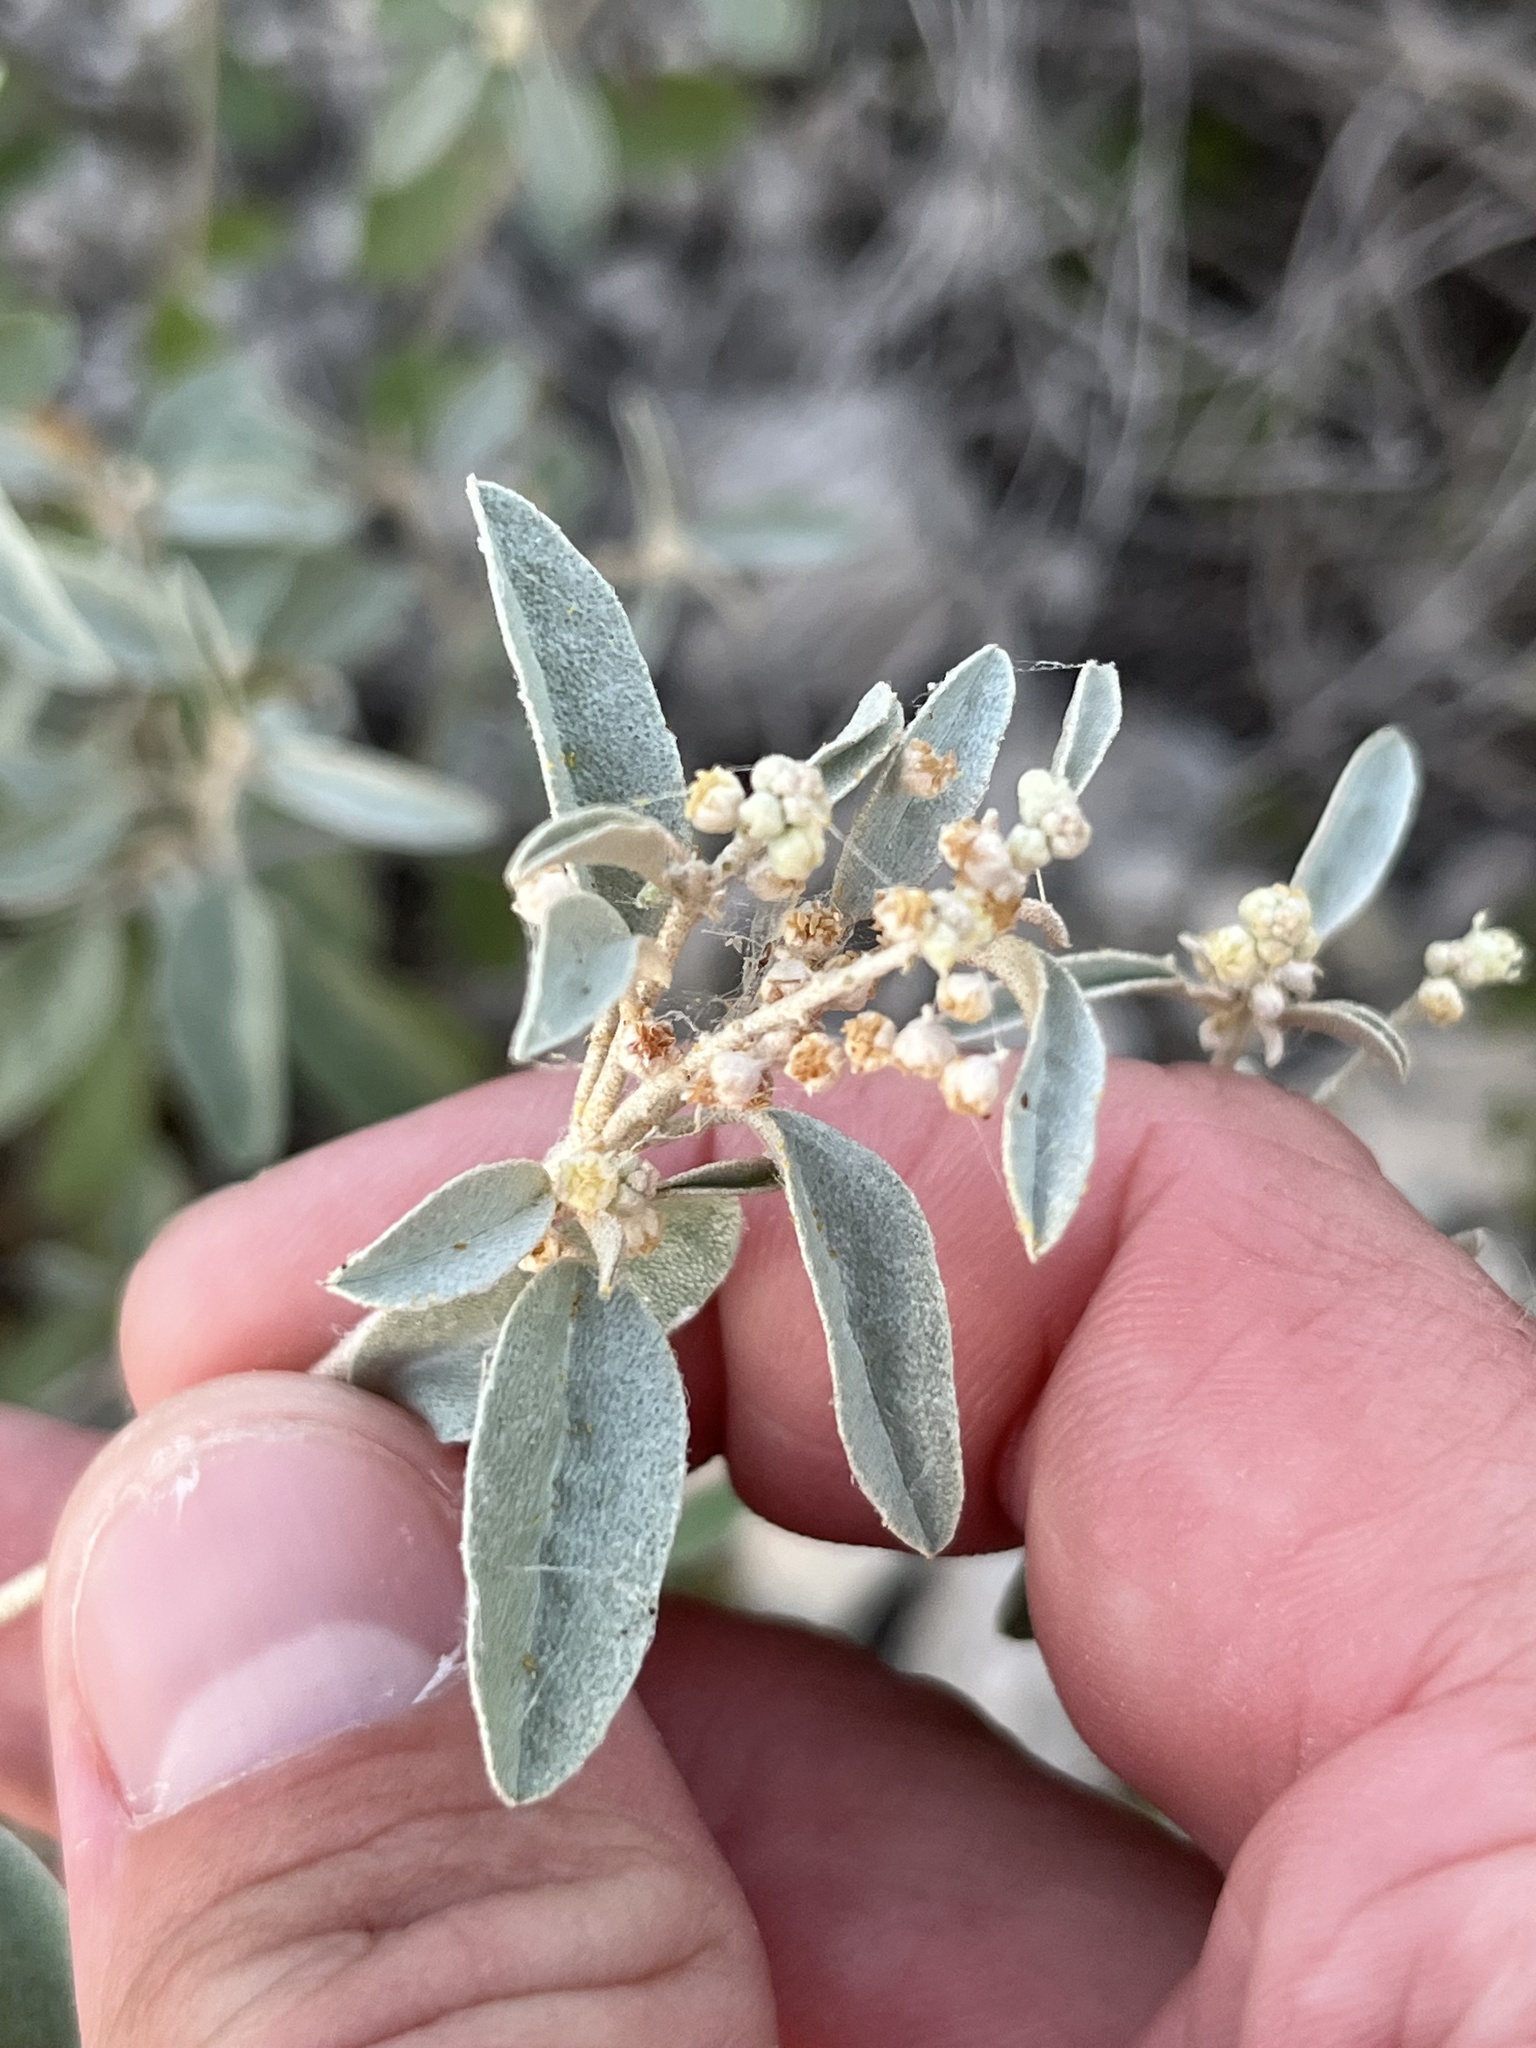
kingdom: Plantae
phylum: Tracheophyta
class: Magnoliopsida
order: Malpighiales
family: Euphorbiaceae
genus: Croton
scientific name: Croton dioicus
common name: Grassland croton
